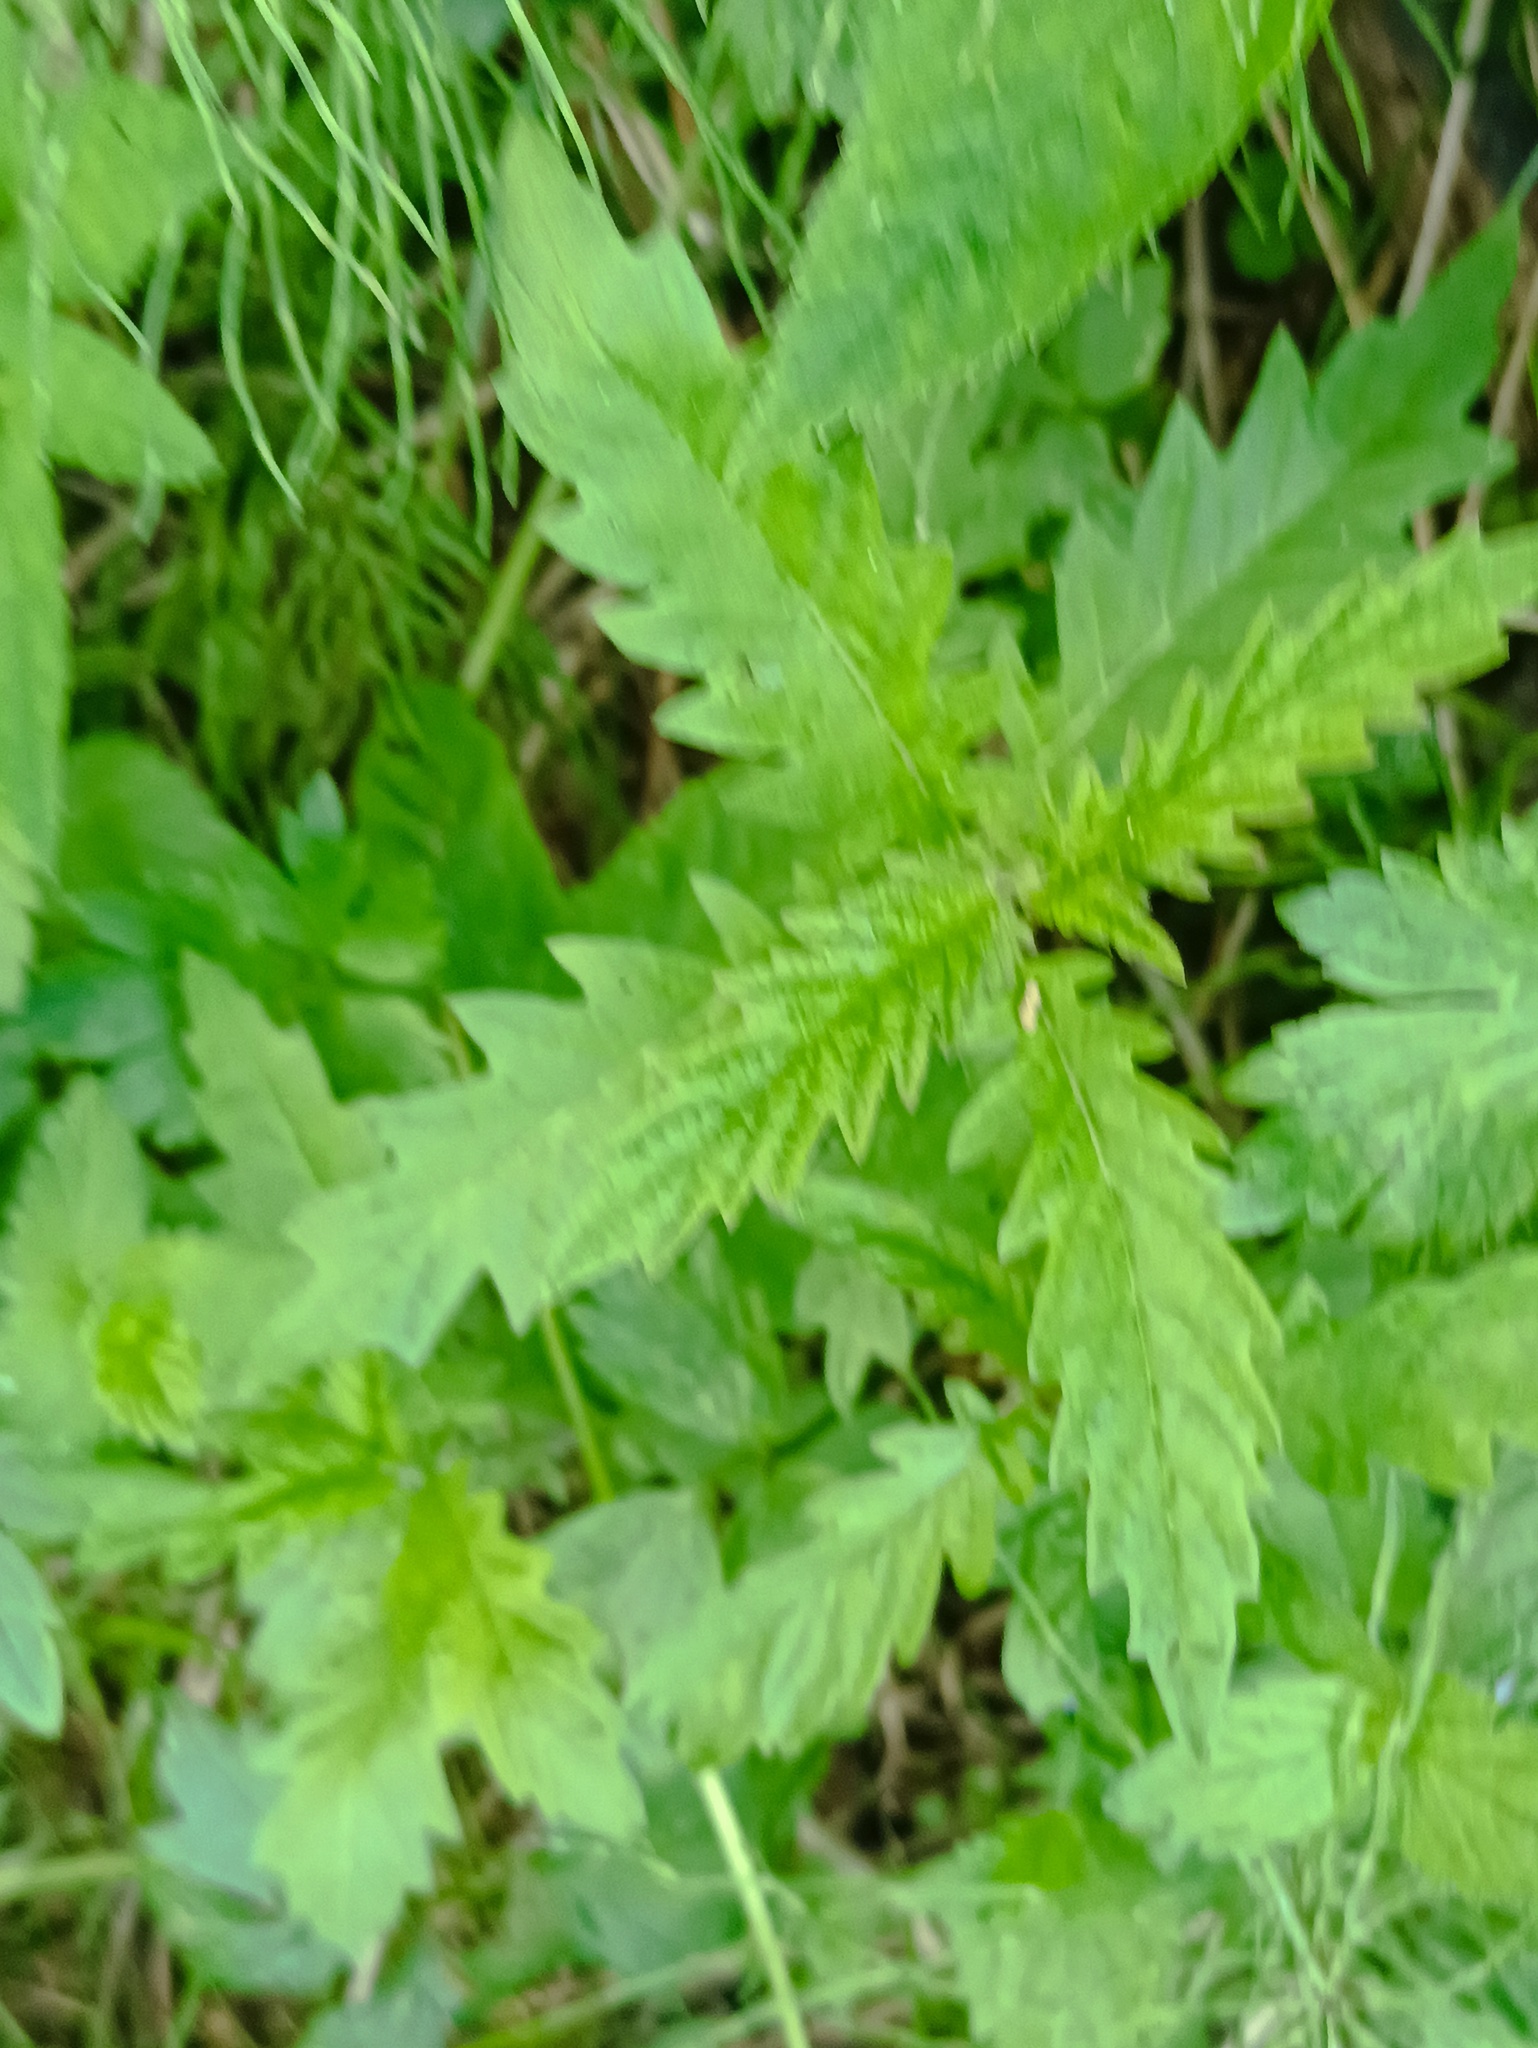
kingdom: Plantae
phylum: Tracheophyta
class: Magnoliopsida
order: Lamiales
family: Lamiaceae
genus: Lycopus
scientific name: Lycopus europaeus
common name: European bugleweed
